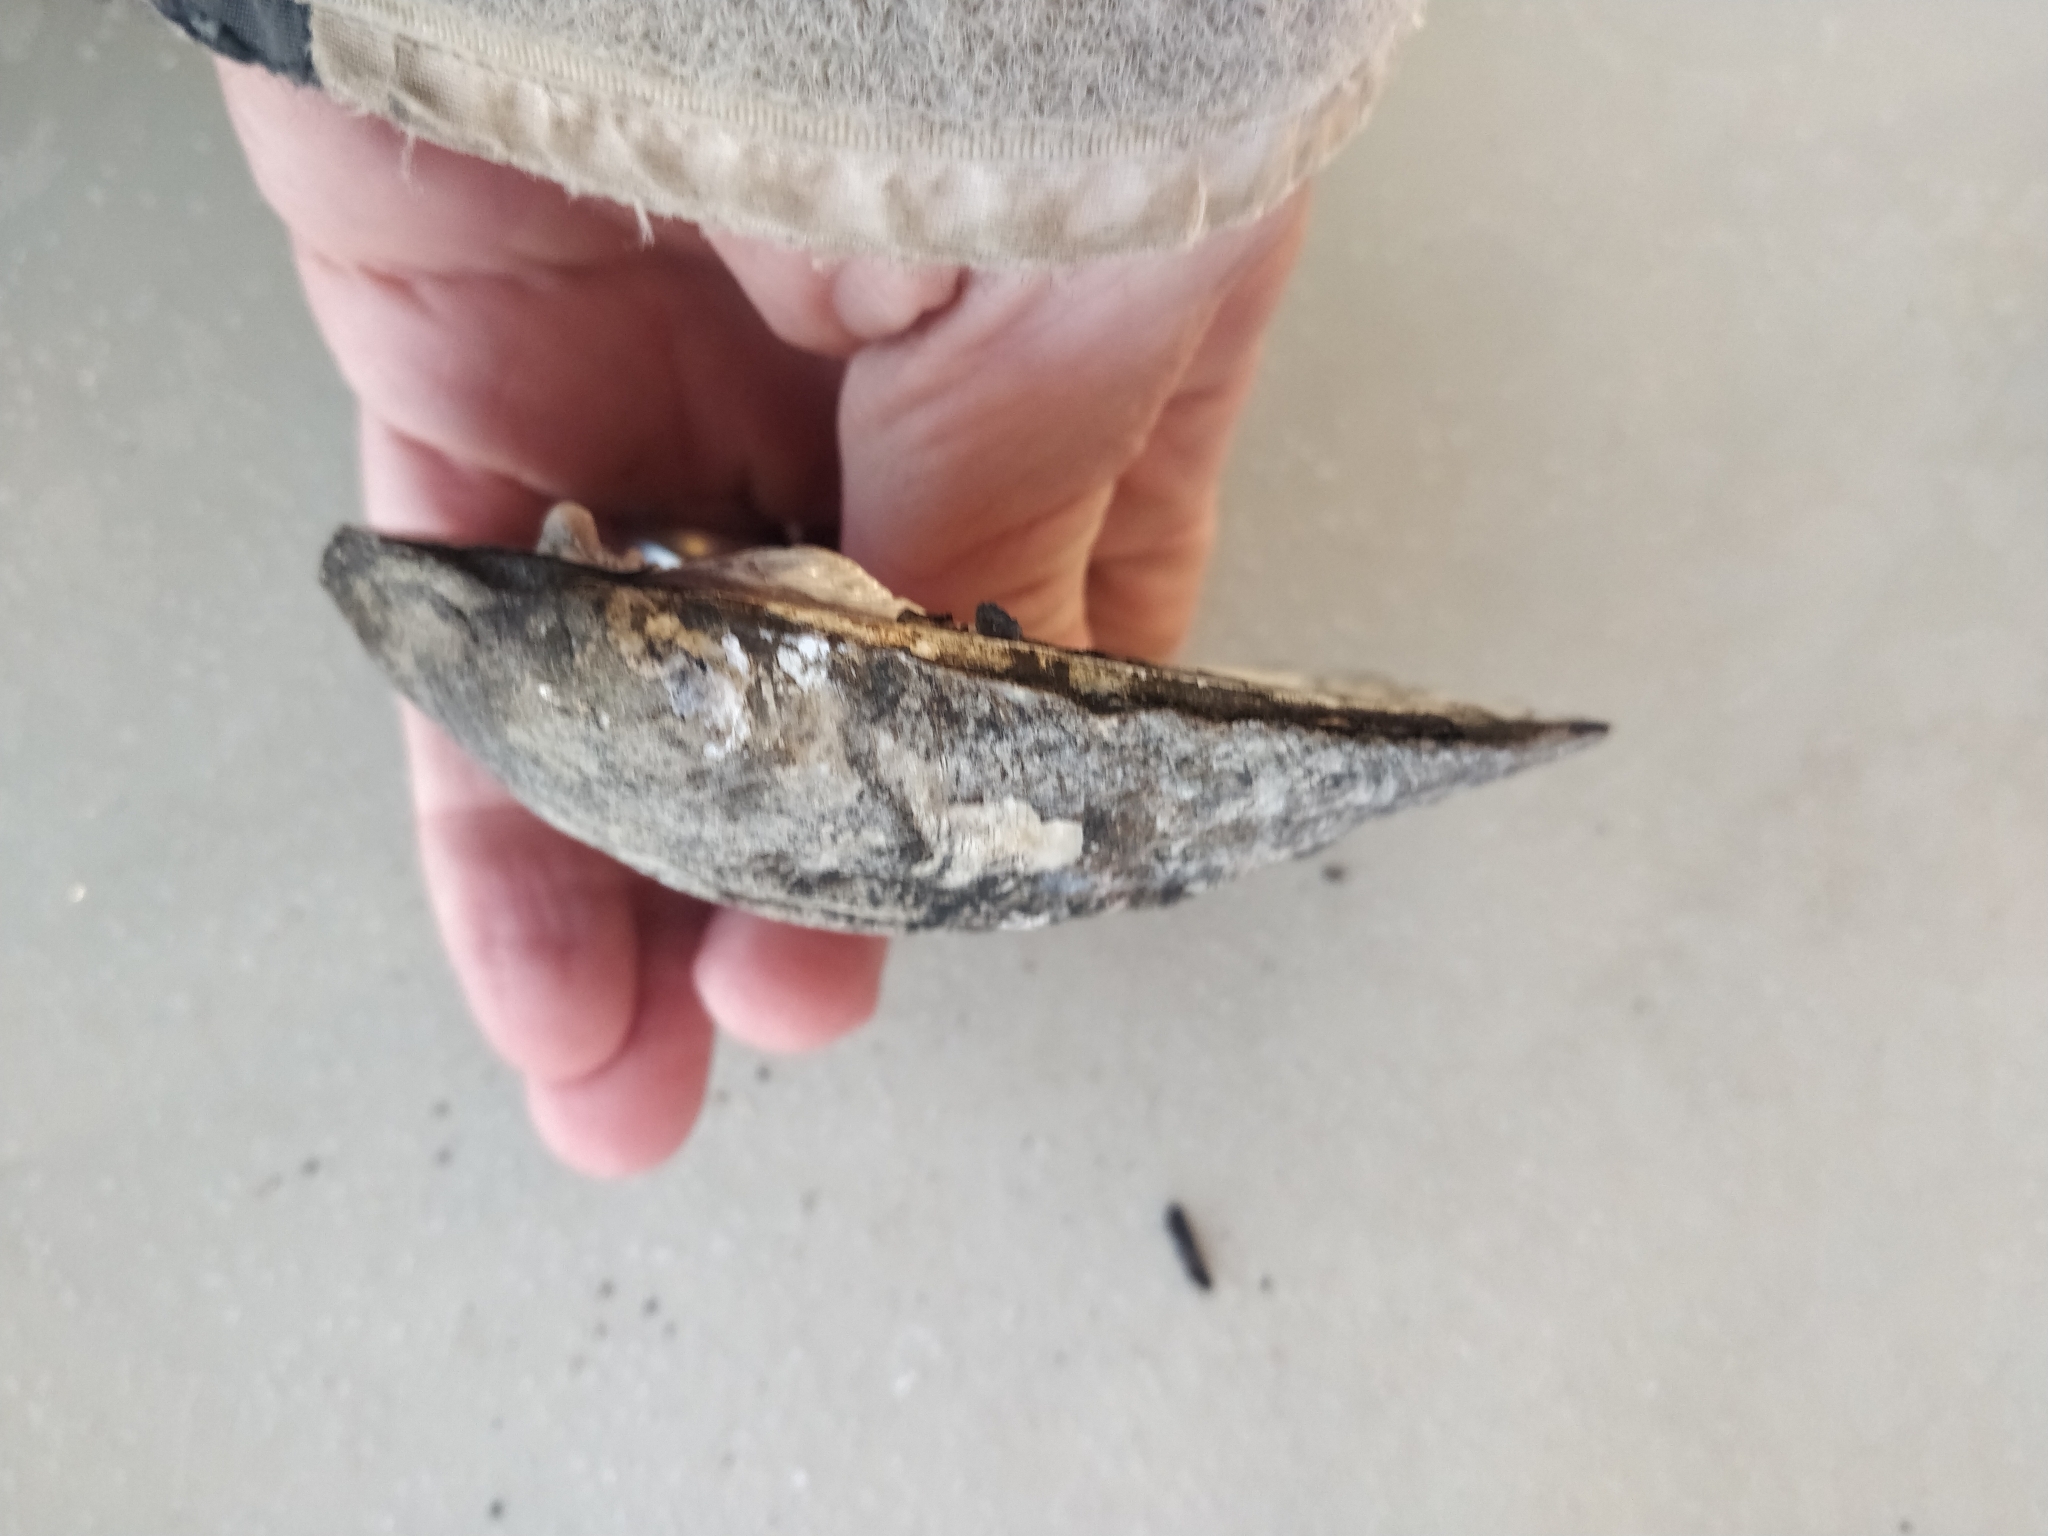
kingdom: Animalia
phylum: Mollusca
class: Bivalvia
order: Unionida
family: Unionidae
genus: Amblema
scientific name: Amblema plicata
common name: Threeridge
